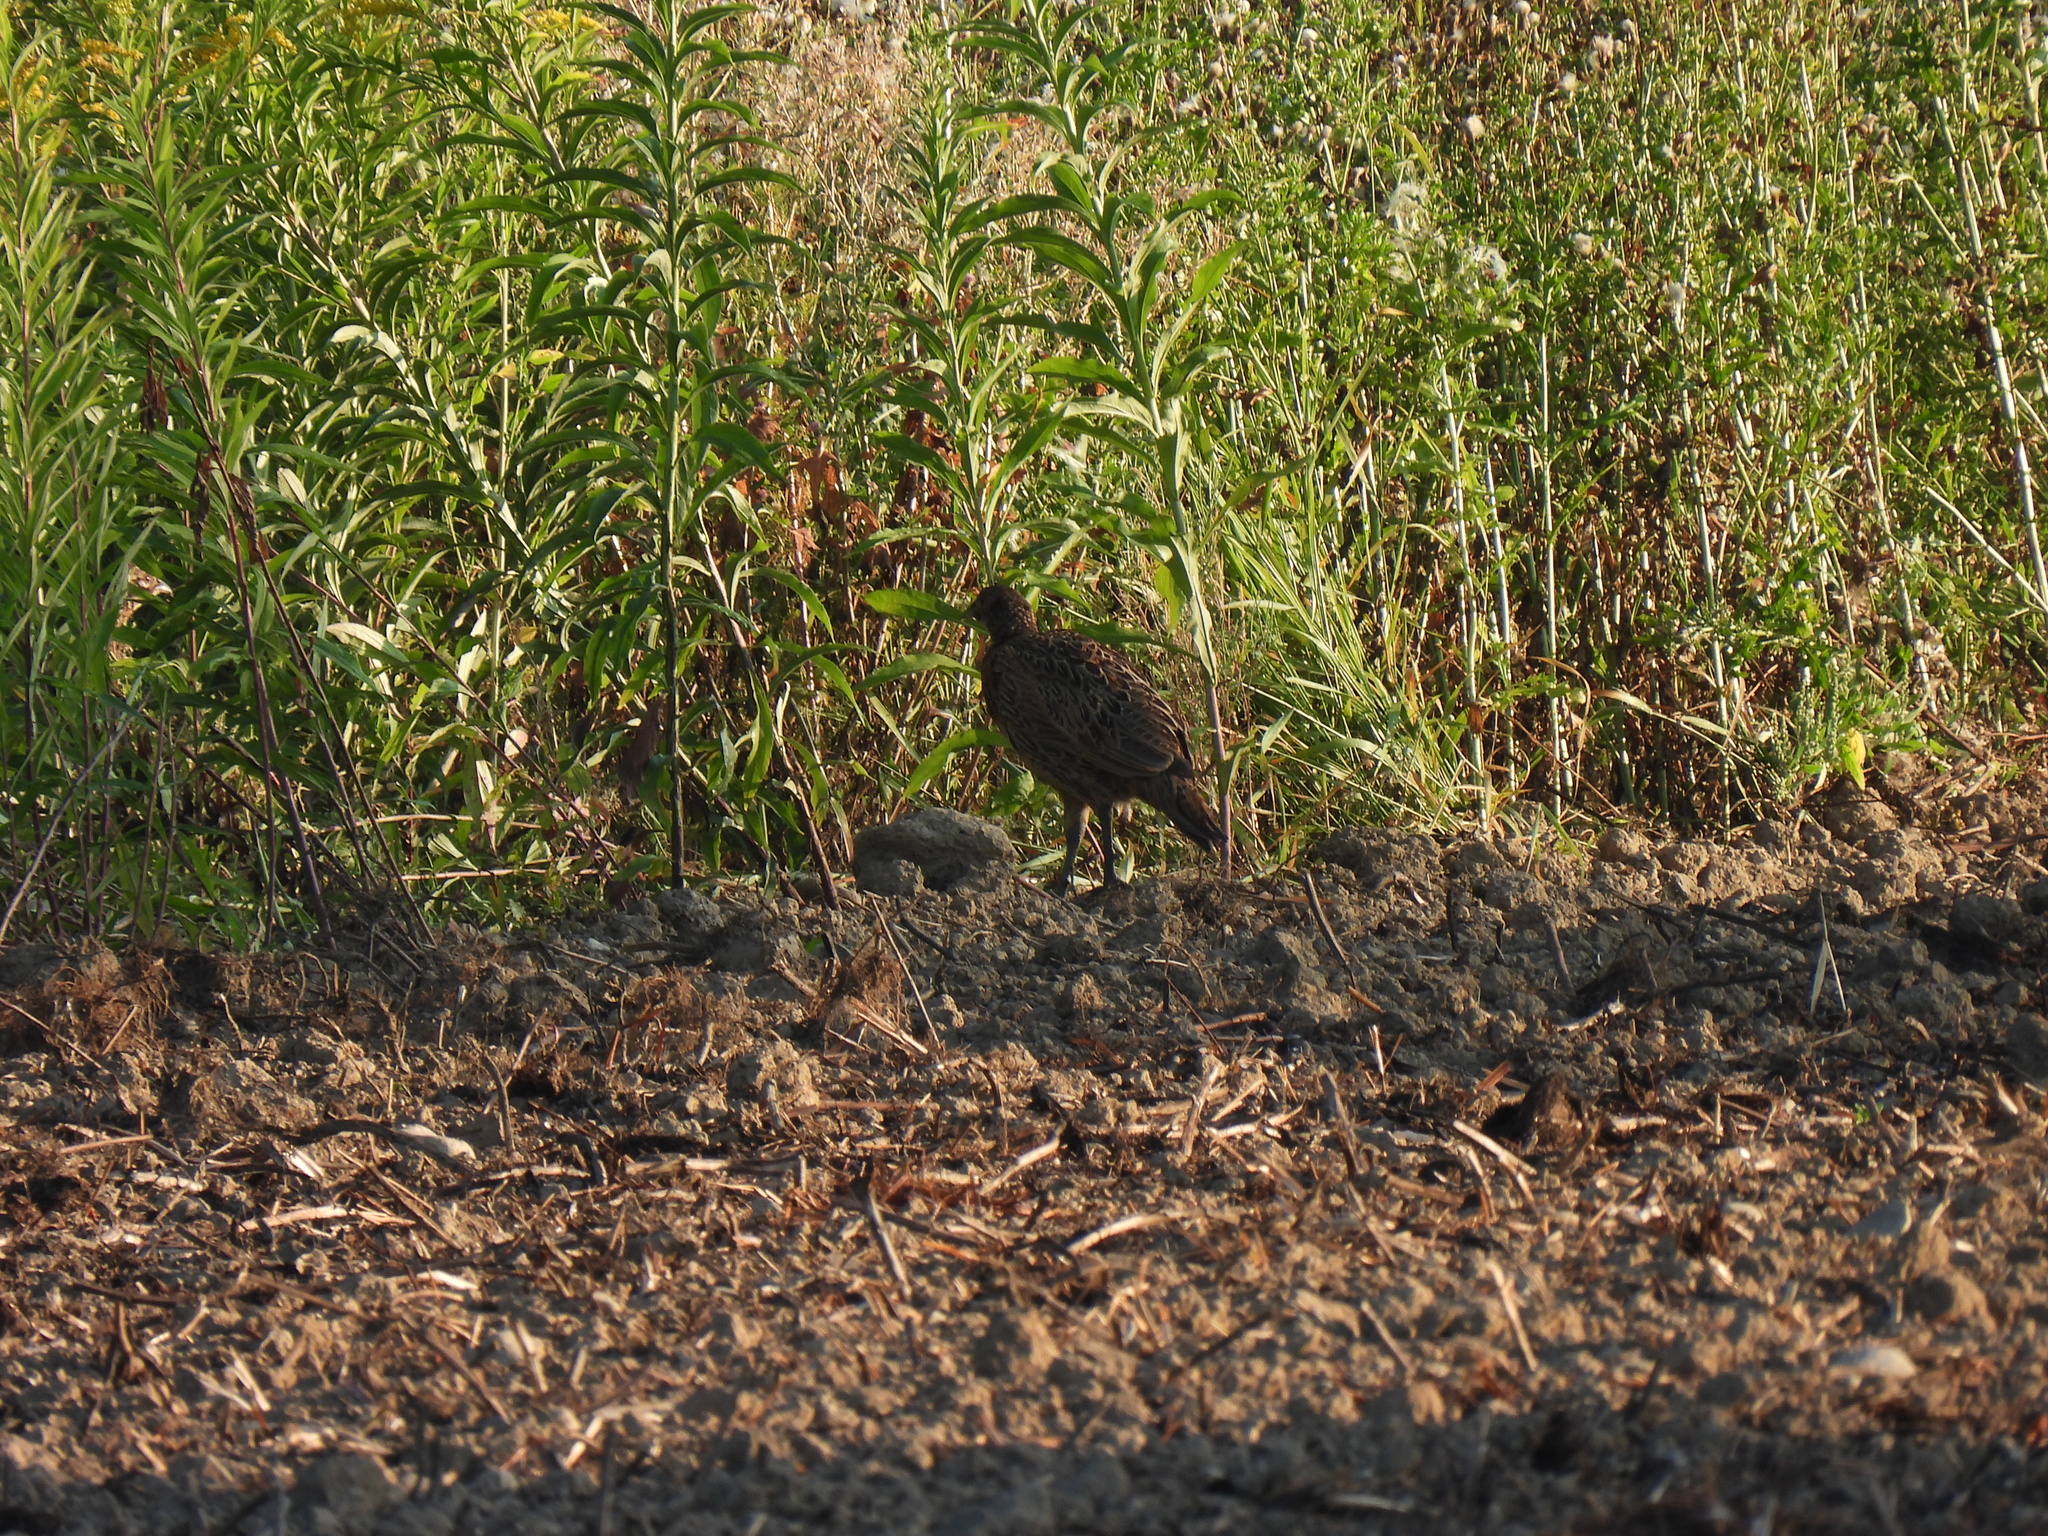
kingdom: Animalia
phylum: Chordata
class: Aves
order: Galliformes
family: Phasianidae
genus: Phasianus
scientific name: Phasianus colchicus
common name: Common pheasant
